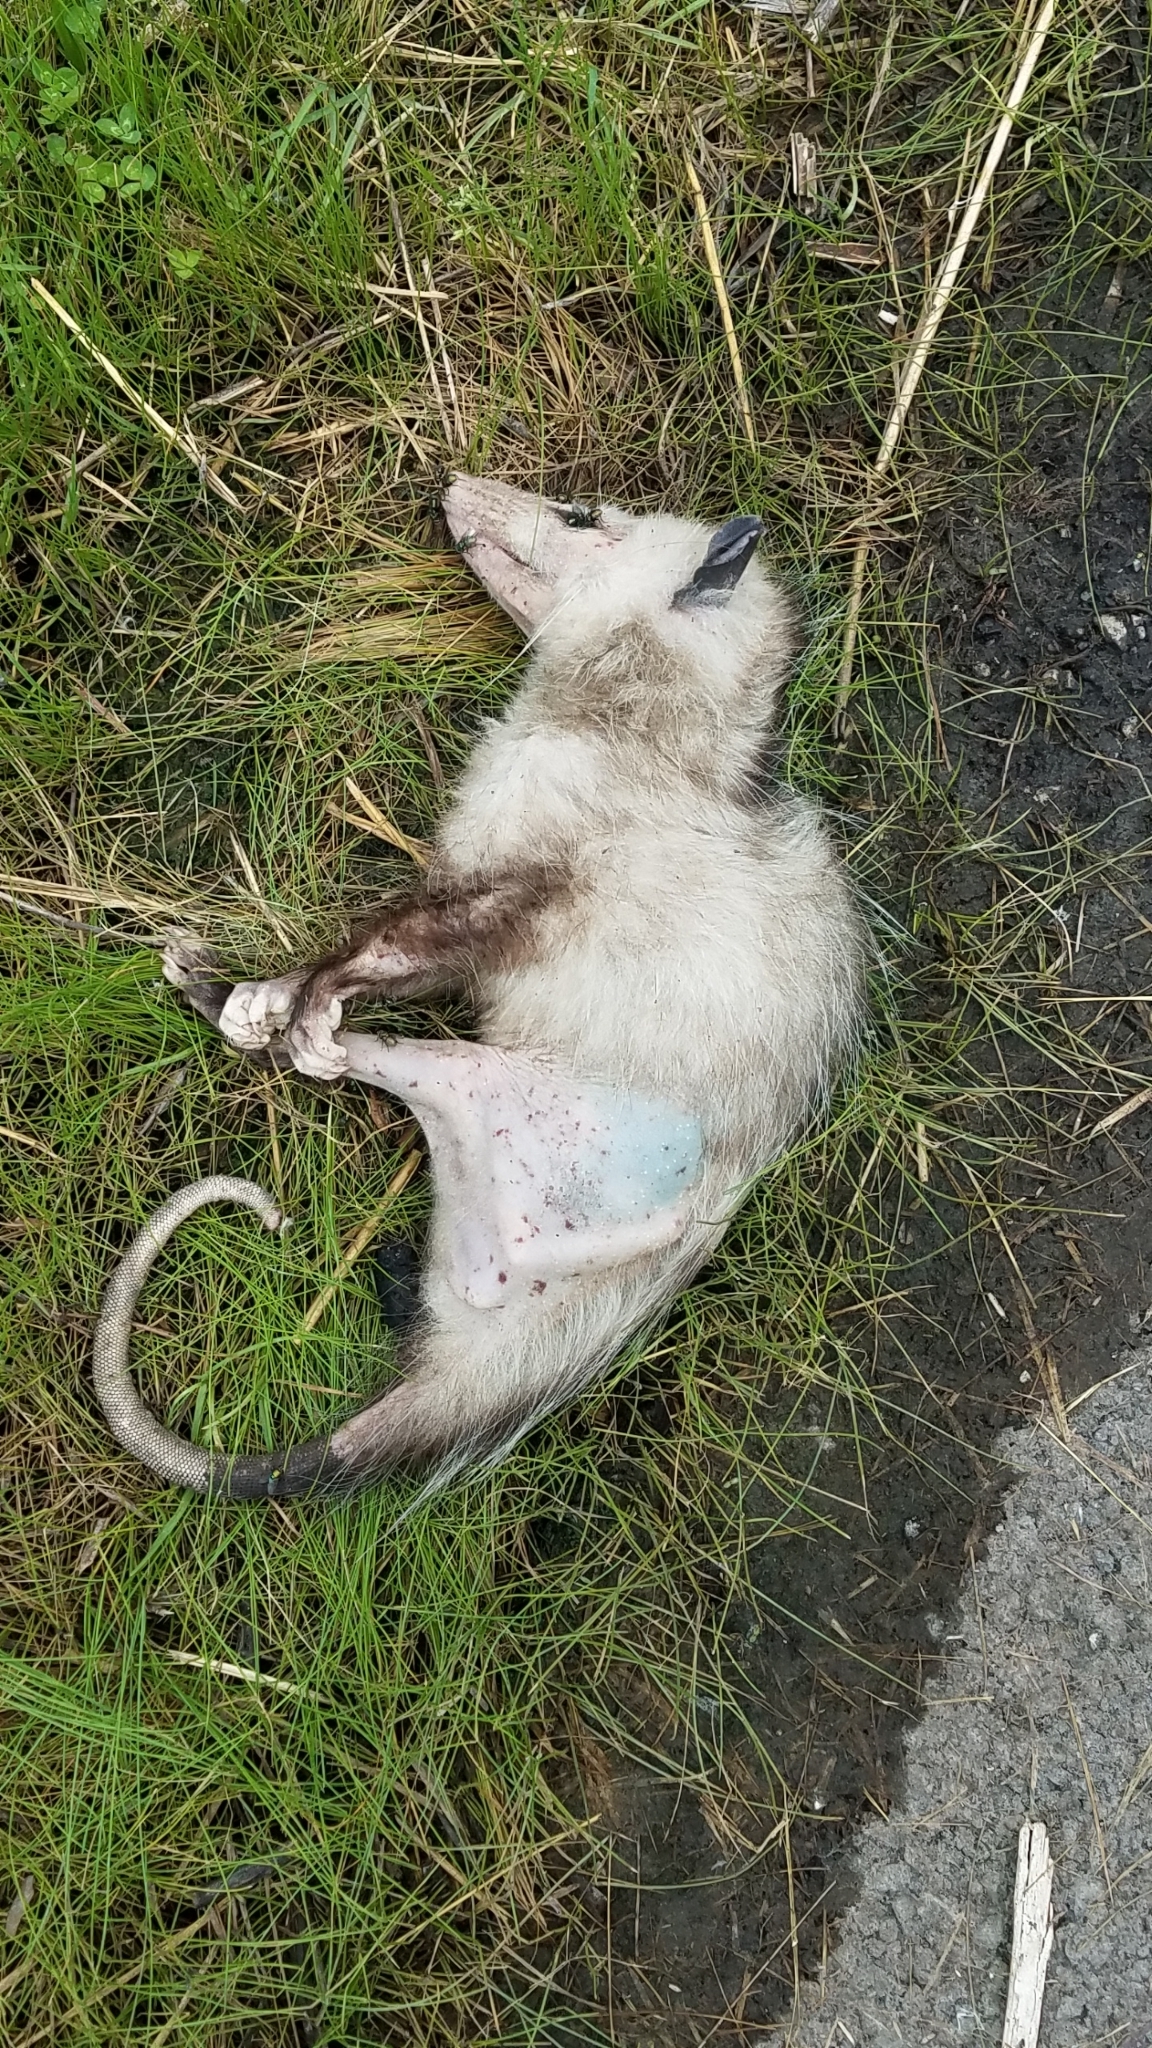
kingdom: Animalia
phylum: Chordata
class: Mammalia
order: Didelphimorphia
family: Didelphidae
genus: Didelphis
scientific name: Didelphis virginiana
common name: Virginia opossum
